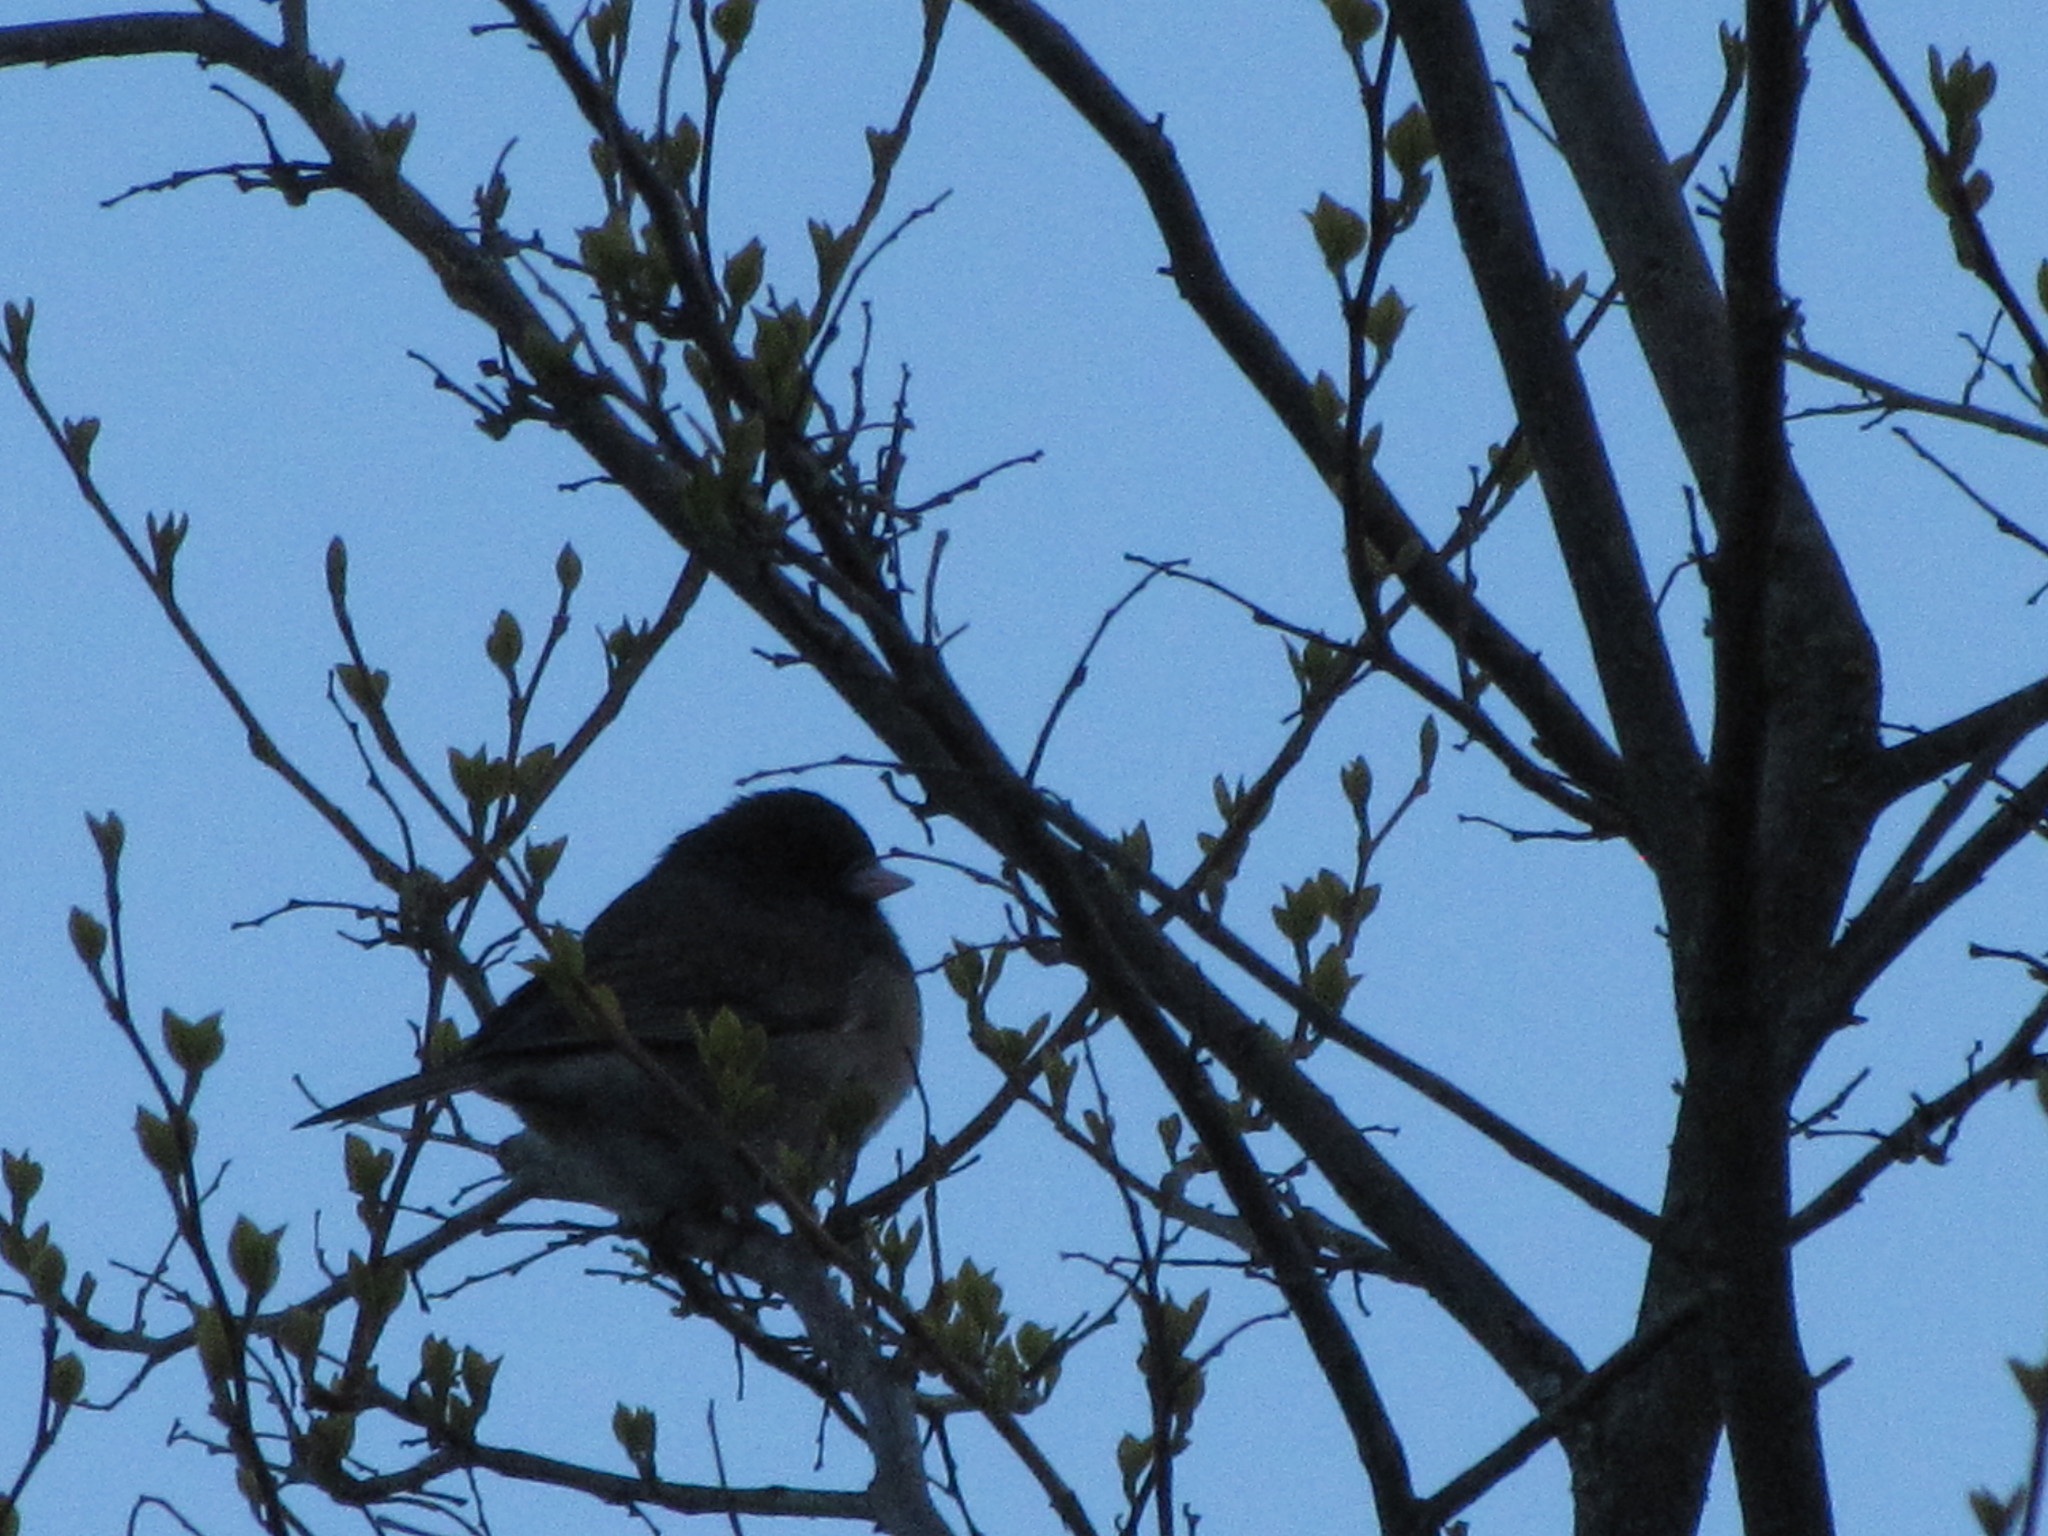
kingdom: Animalia
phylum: Chordata
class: Aves
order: Passeriformes
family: Passerellidae
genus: Junco
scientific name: Junco hyemalis
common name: Dark-eyed junco
